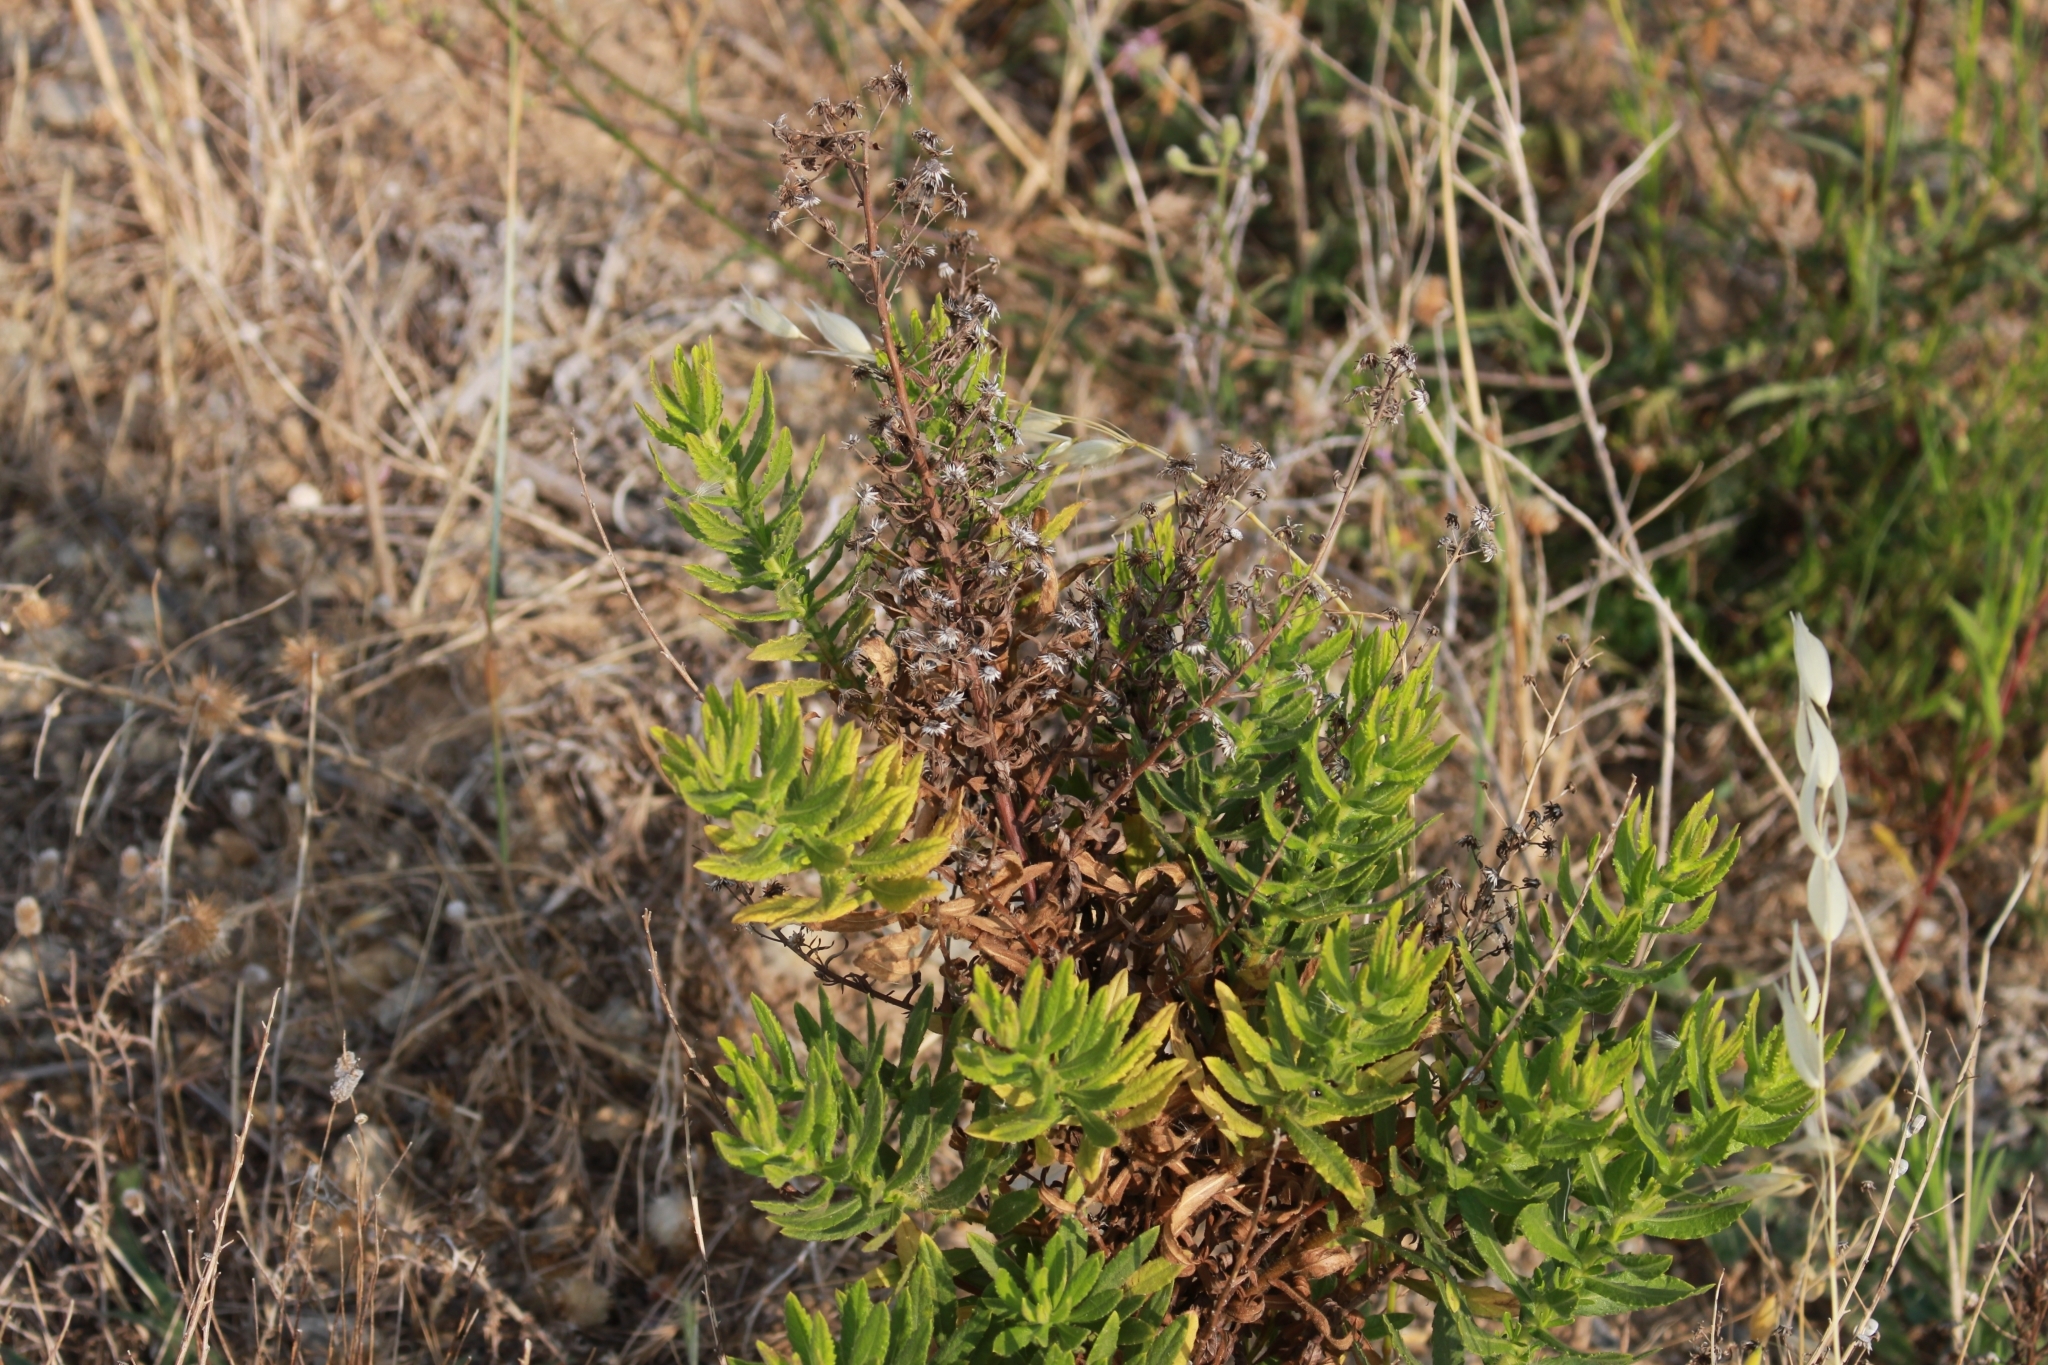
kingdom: Plantae
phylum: Tracheophyta
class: Magnoliopsida
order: Asterales
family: Asteraceae
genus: Dittrichia
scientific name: Dittrichia viscosa
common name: Woody fleabane
